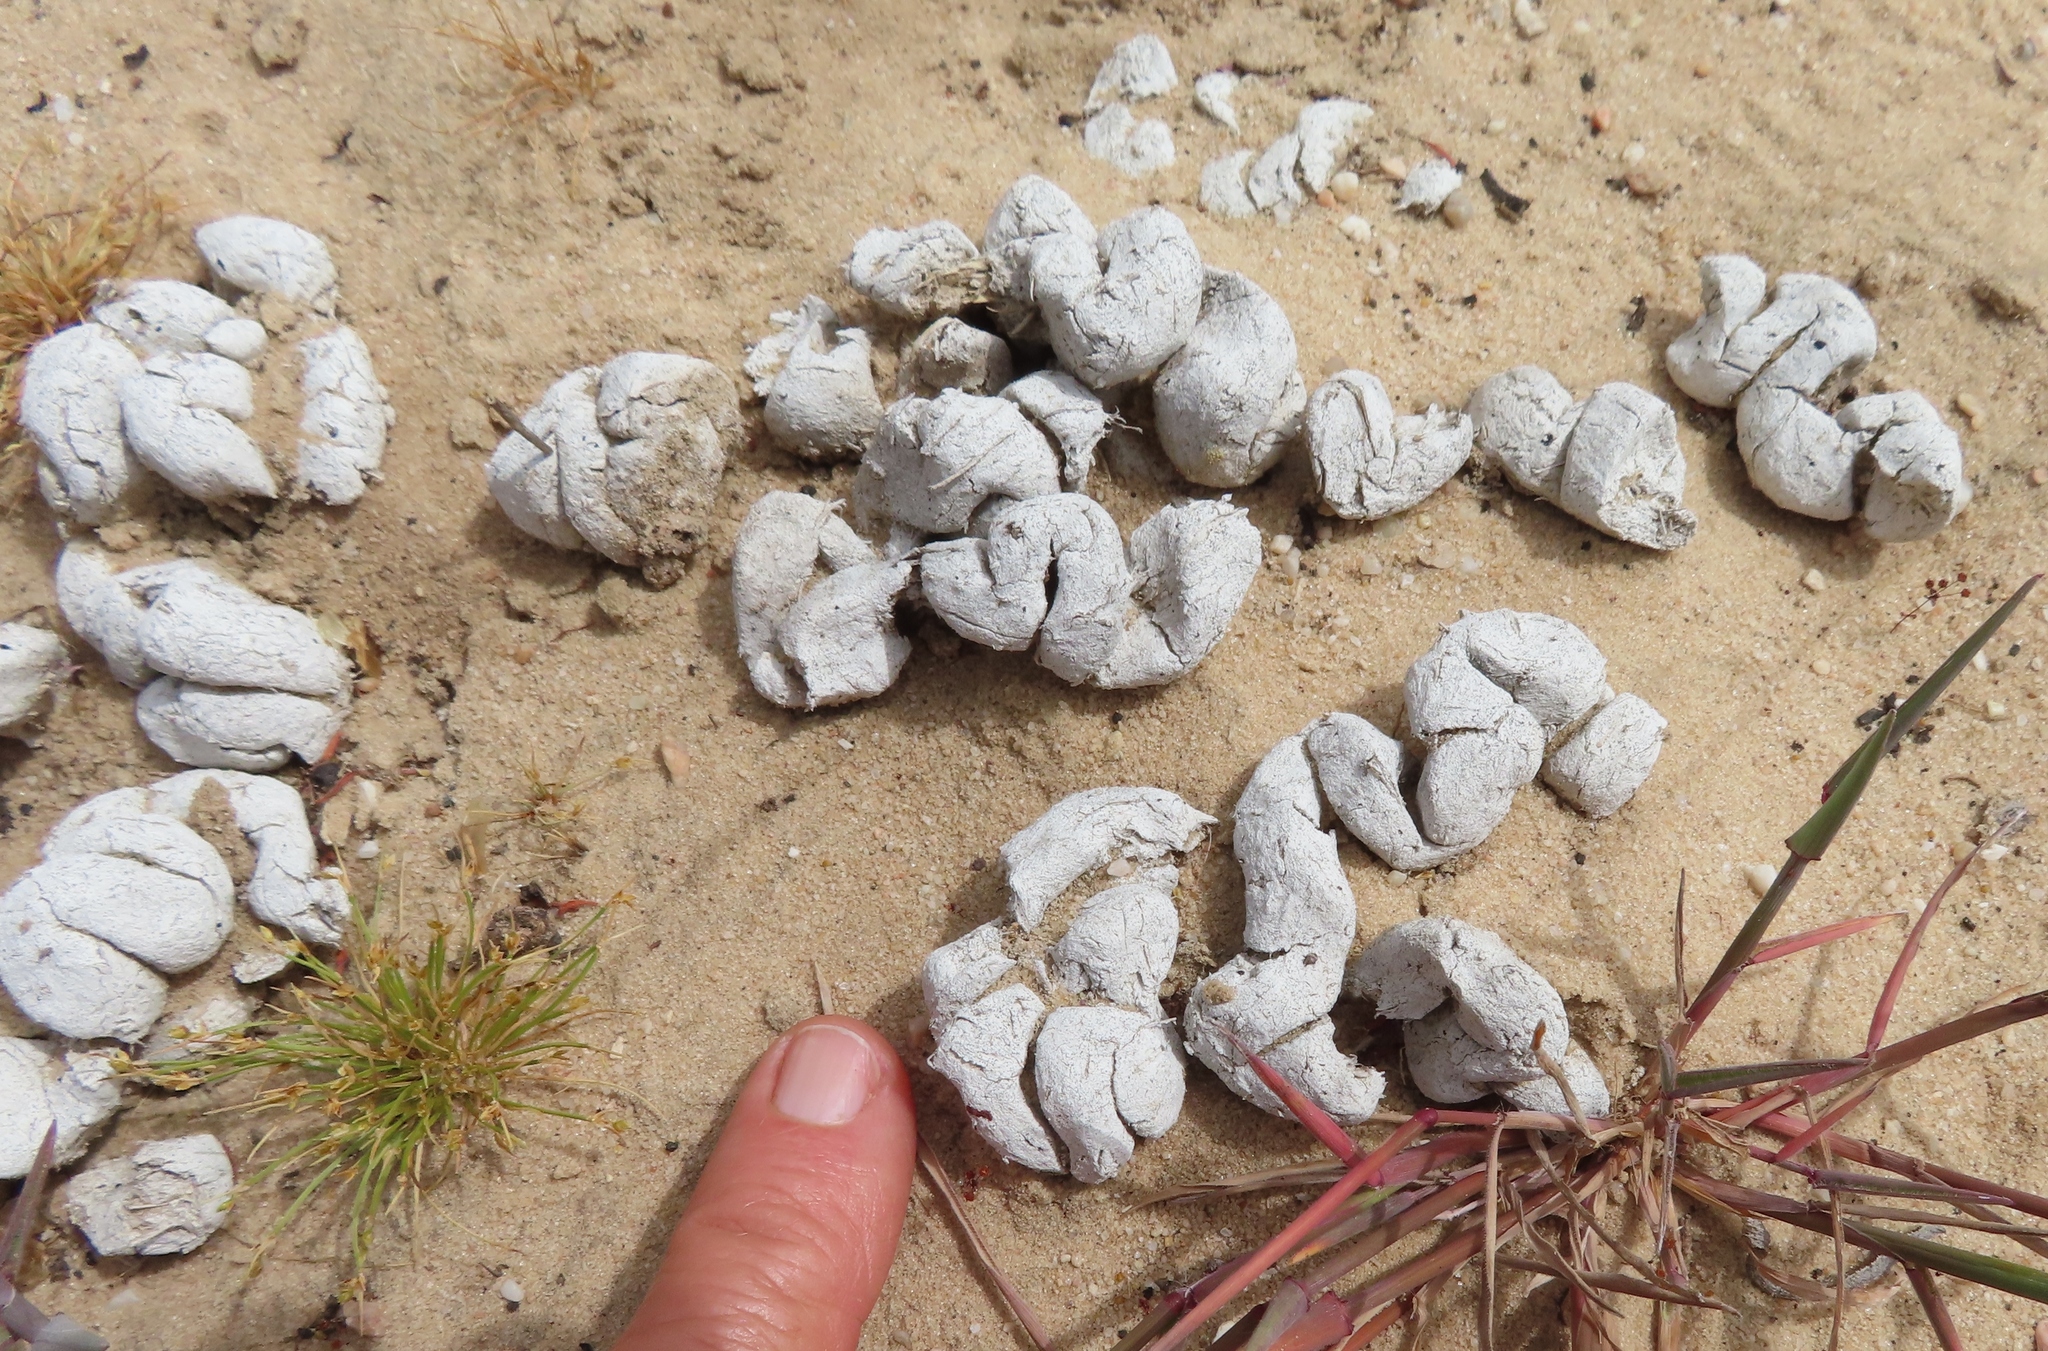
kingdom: Animalia
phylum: Chordata
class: Aves
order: Struthioniformes
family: Struthionidae
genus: Struthio
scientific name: Struthio camelus
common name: Common ostrich
